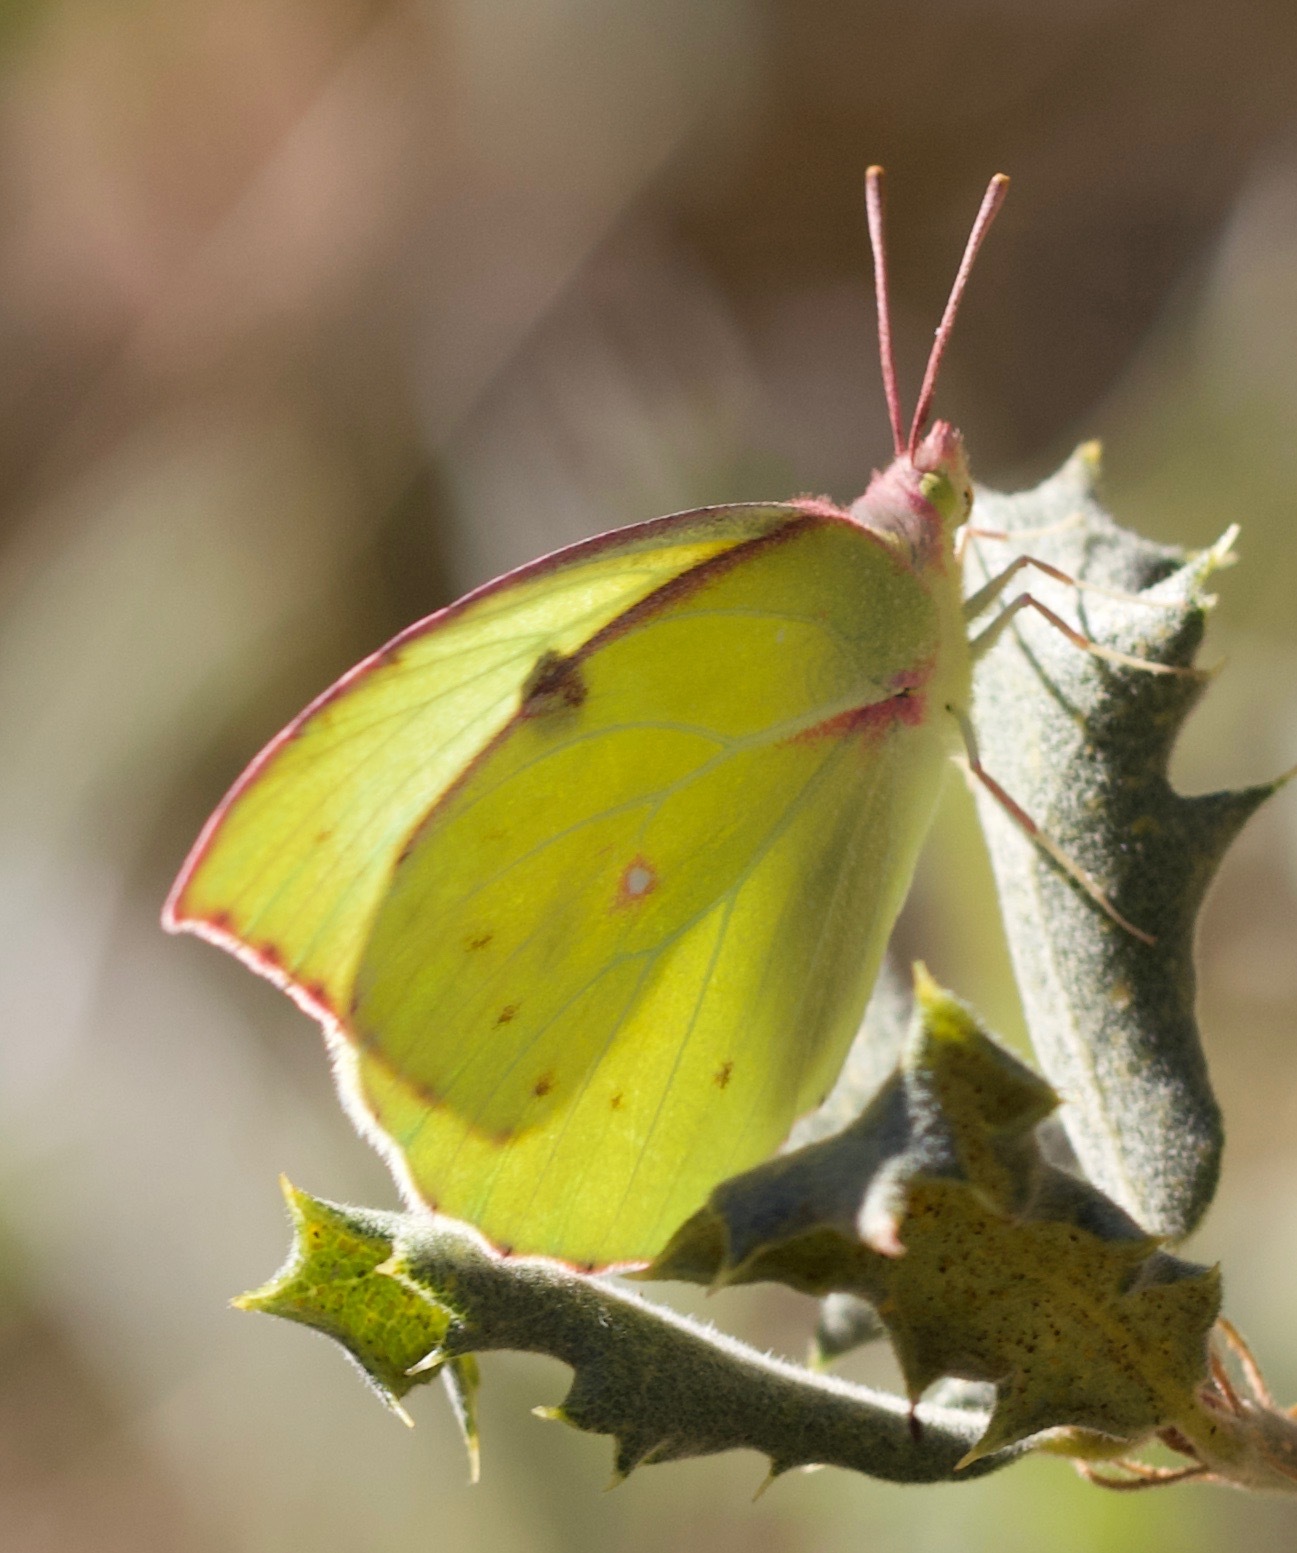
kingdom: Animalia
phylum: Arthropoda
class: Insecta
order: Lepidoptera
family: Pieridae
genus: Zerene
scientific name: Zerene eurydice
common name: California dogface
